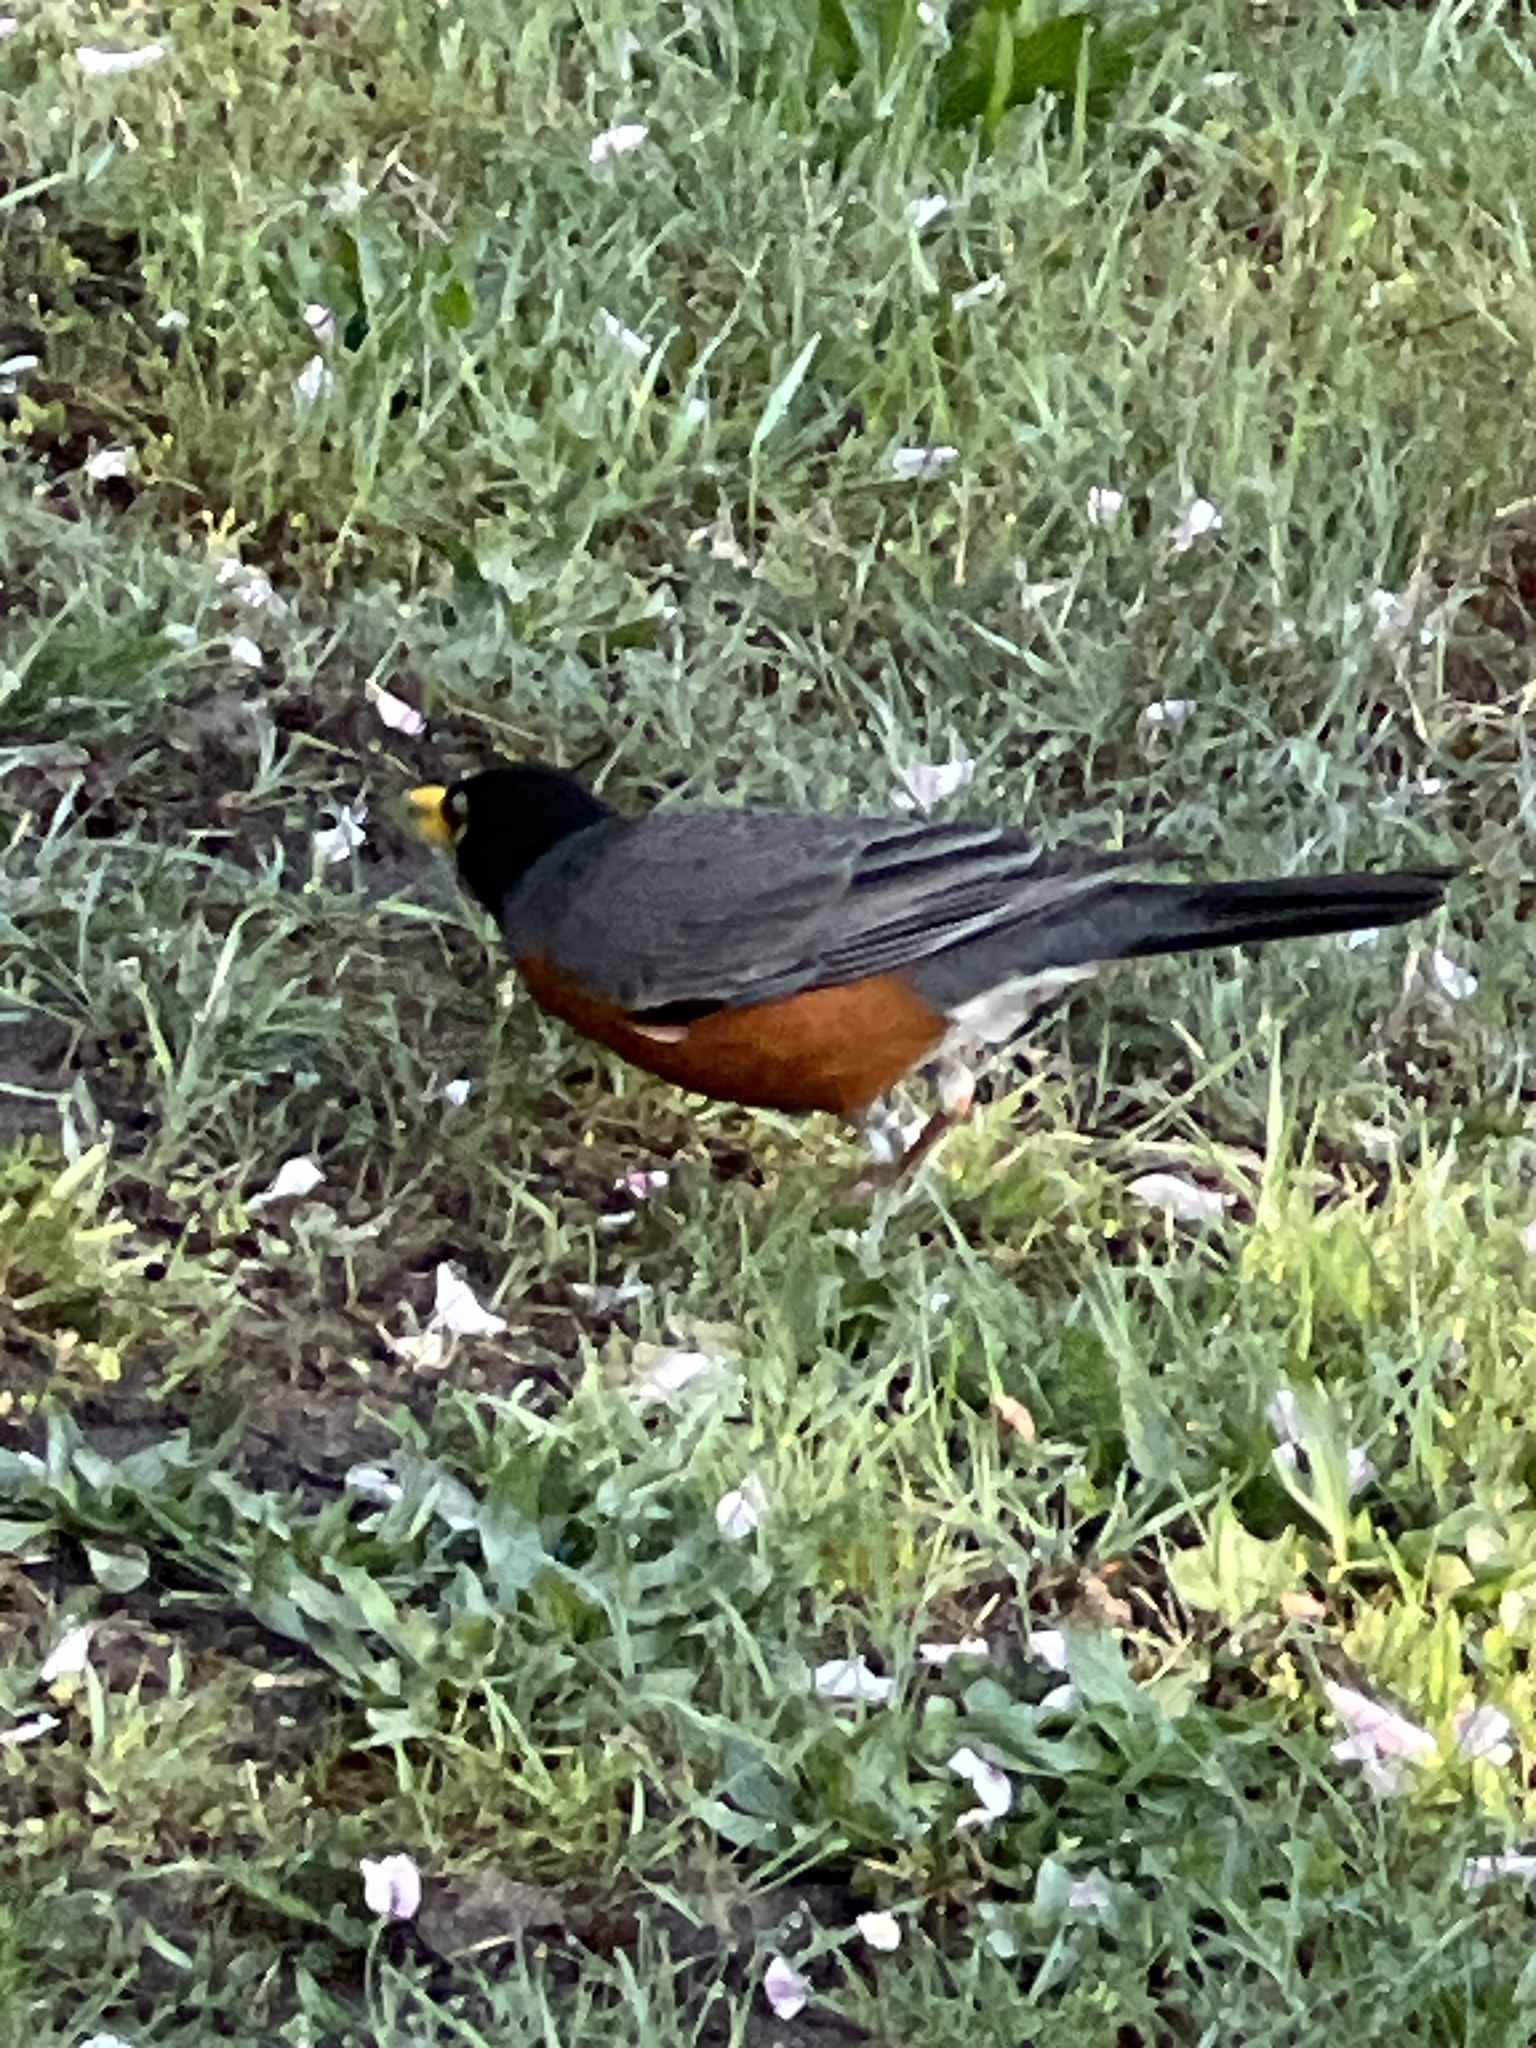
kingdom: Animalia
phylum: Chordata
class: Aves
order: Passeriformes
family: Turdidae
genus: Turdus
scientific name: Turdus migratorius
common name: American robin
